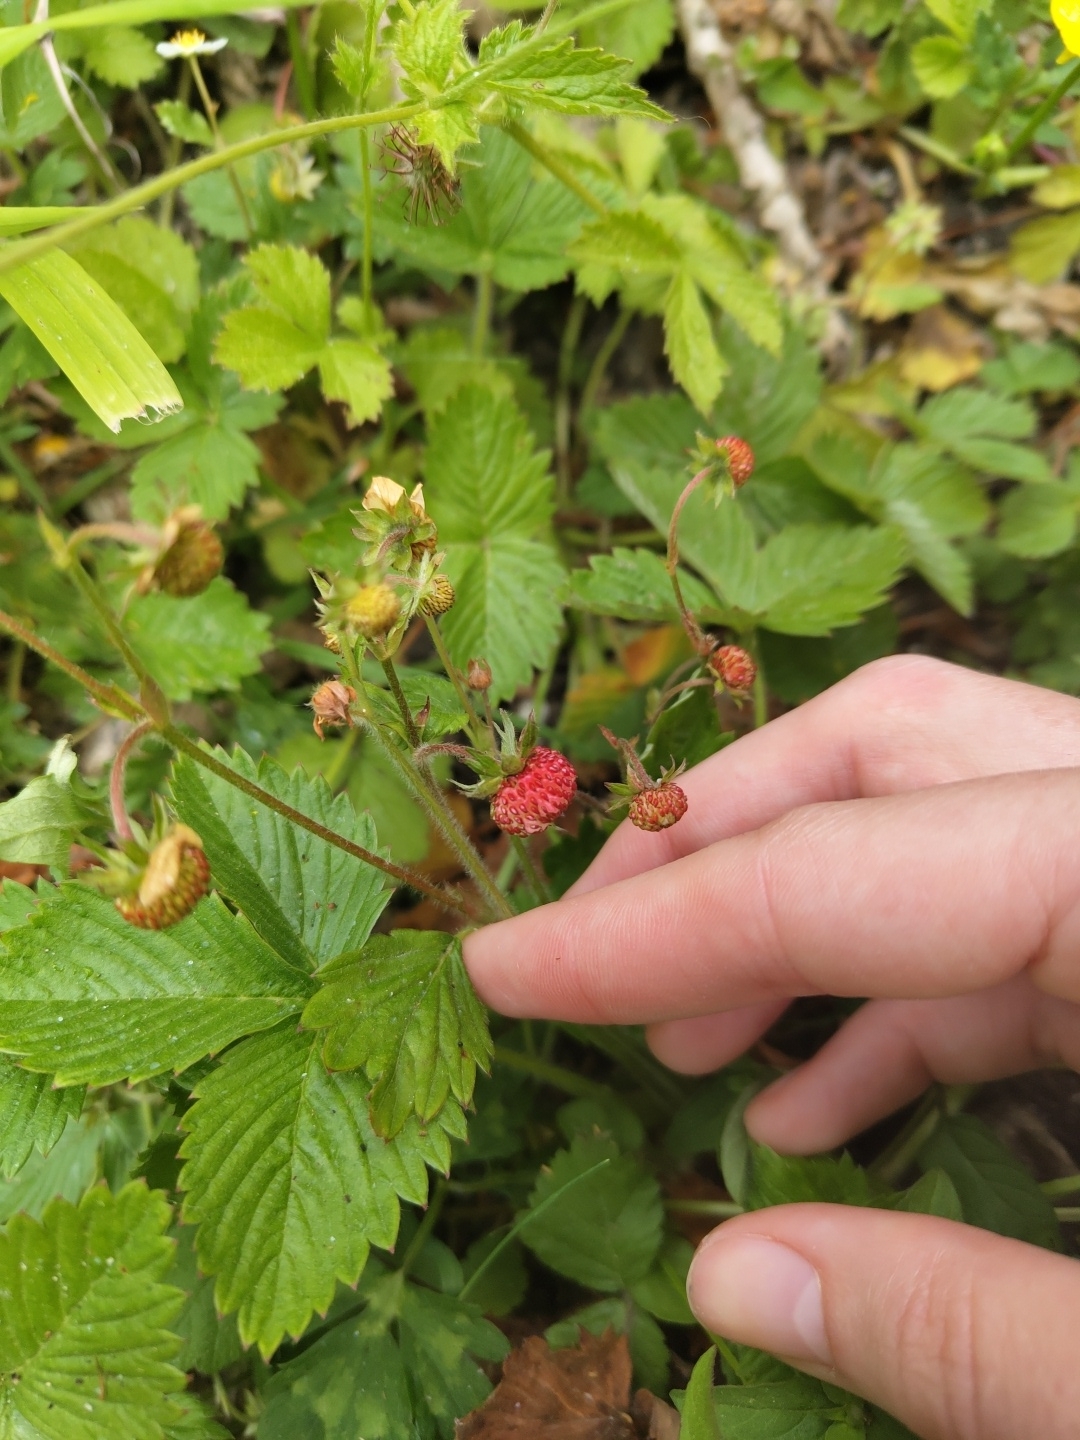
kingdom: Plantae
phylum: Tracheophyta
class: Magnoliopsida
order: Rosales
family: Rosaceae
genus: Fragaria
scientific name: Fragaria vesca
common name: Wild strawberry
